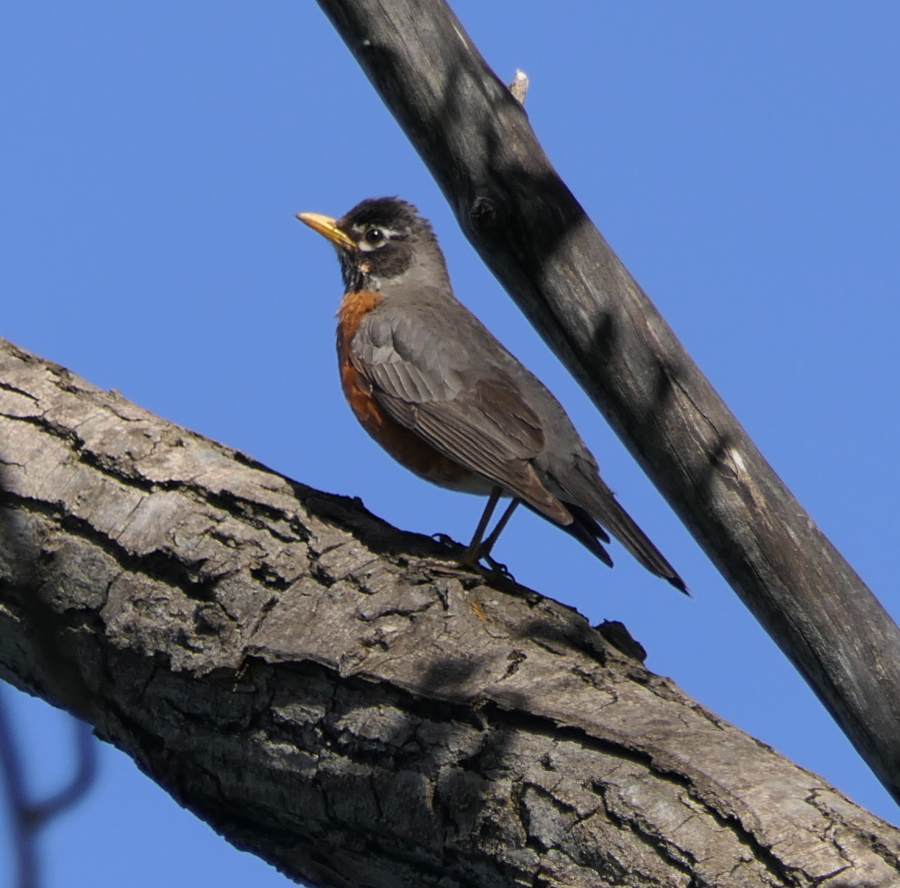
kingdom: Animalia
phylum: Chordata
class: Aves
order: Passeriformes
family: Turdidae
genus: Turdus
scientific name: Turdus migratorius
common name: American robin
